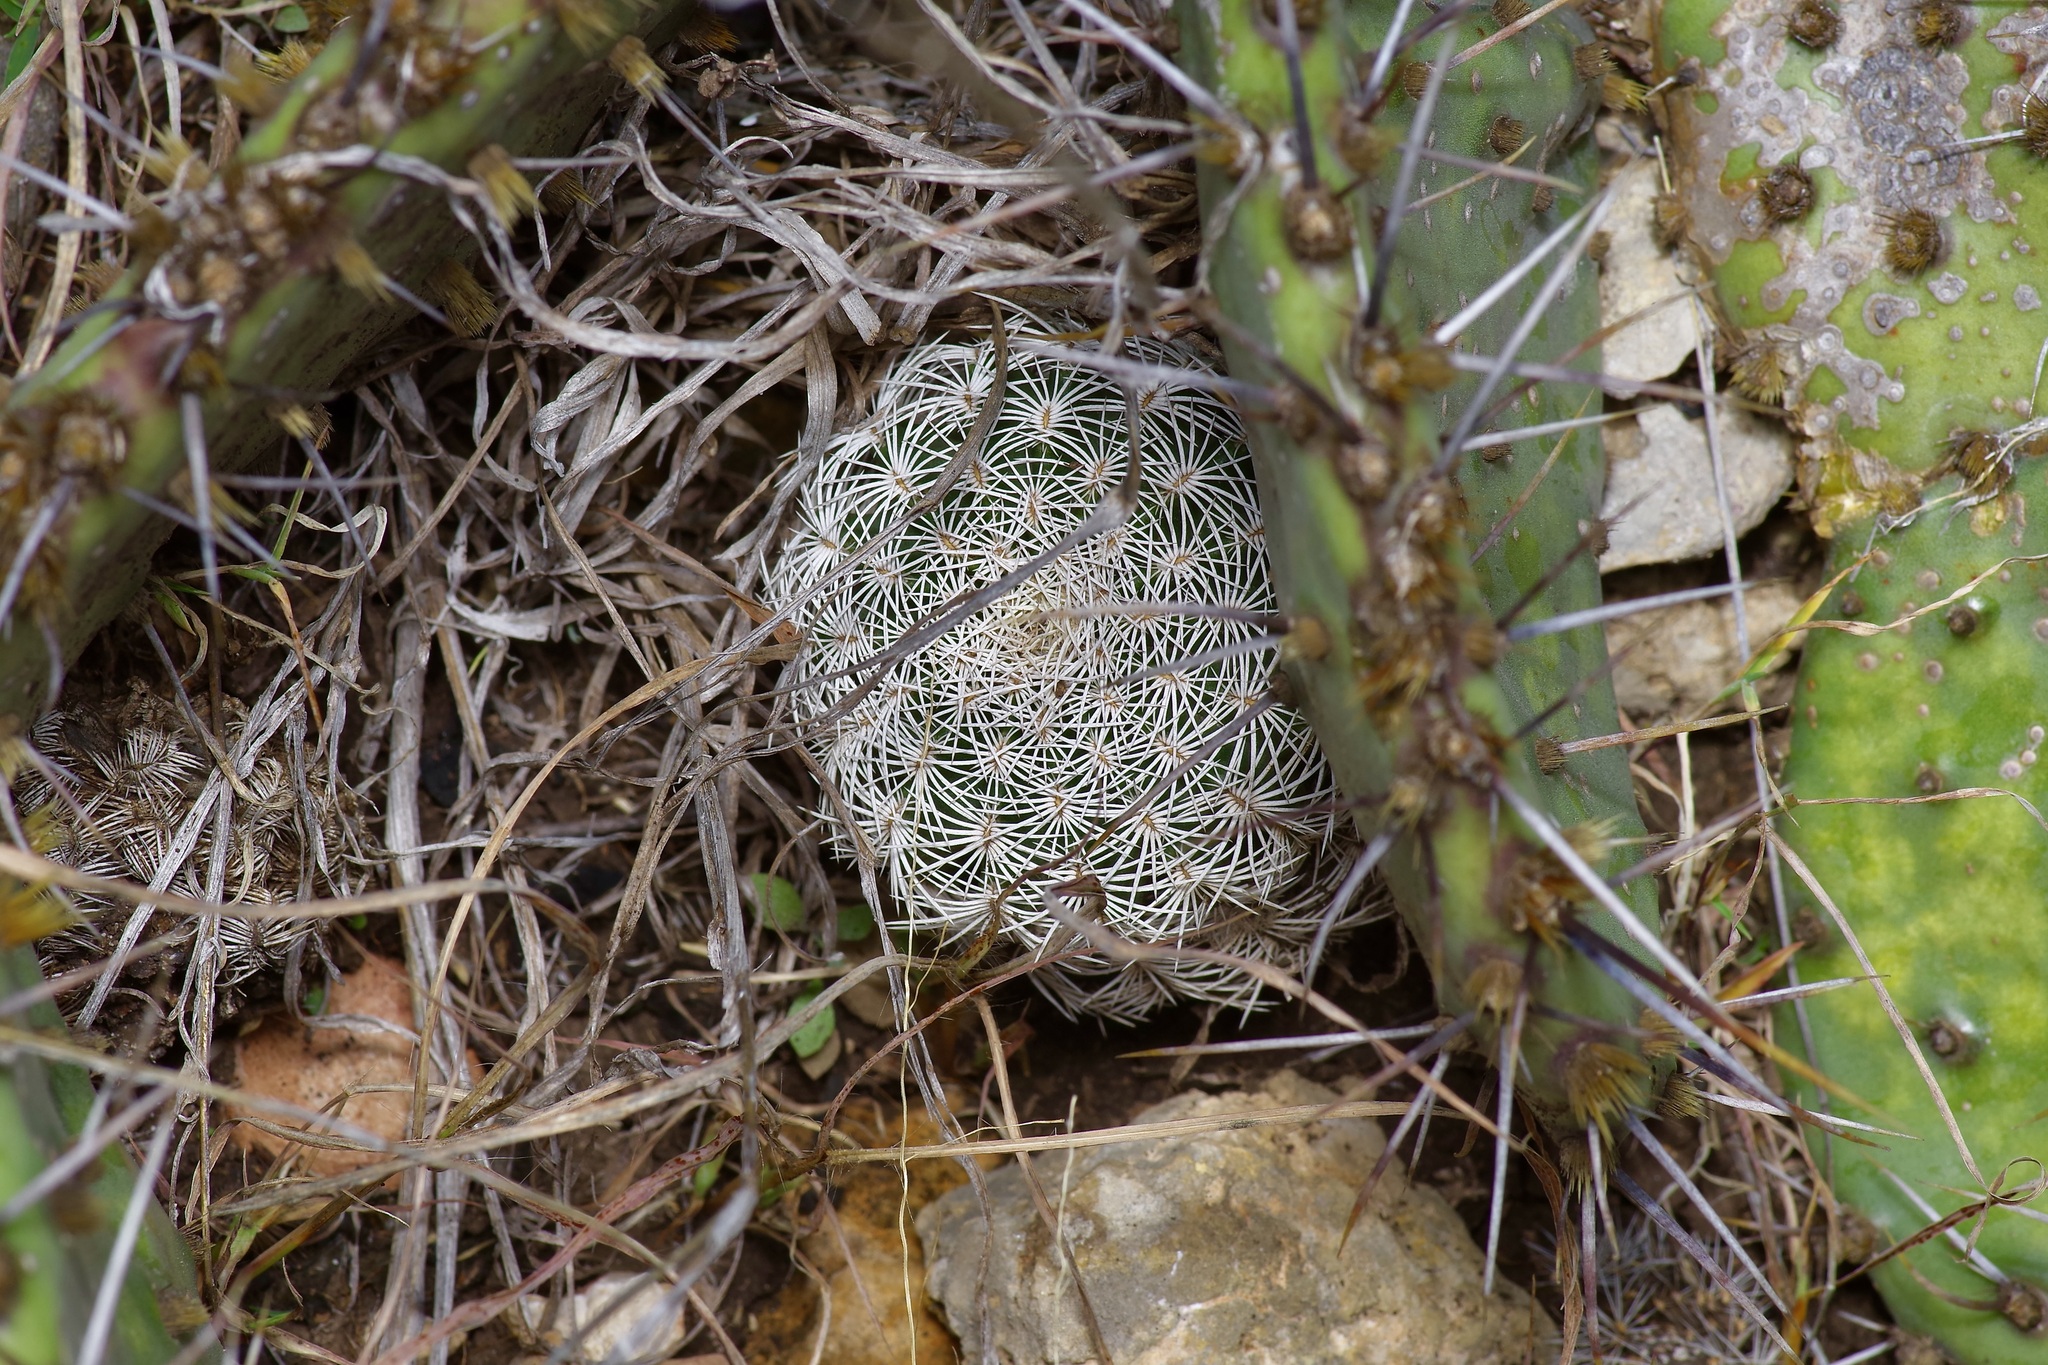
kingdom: Plantae
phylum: Tracheophyta
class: Magnoliopsida
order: Caryophyllales
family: Cactaceae
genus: Echinocereus
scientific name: Echinocereus reichenbachii
